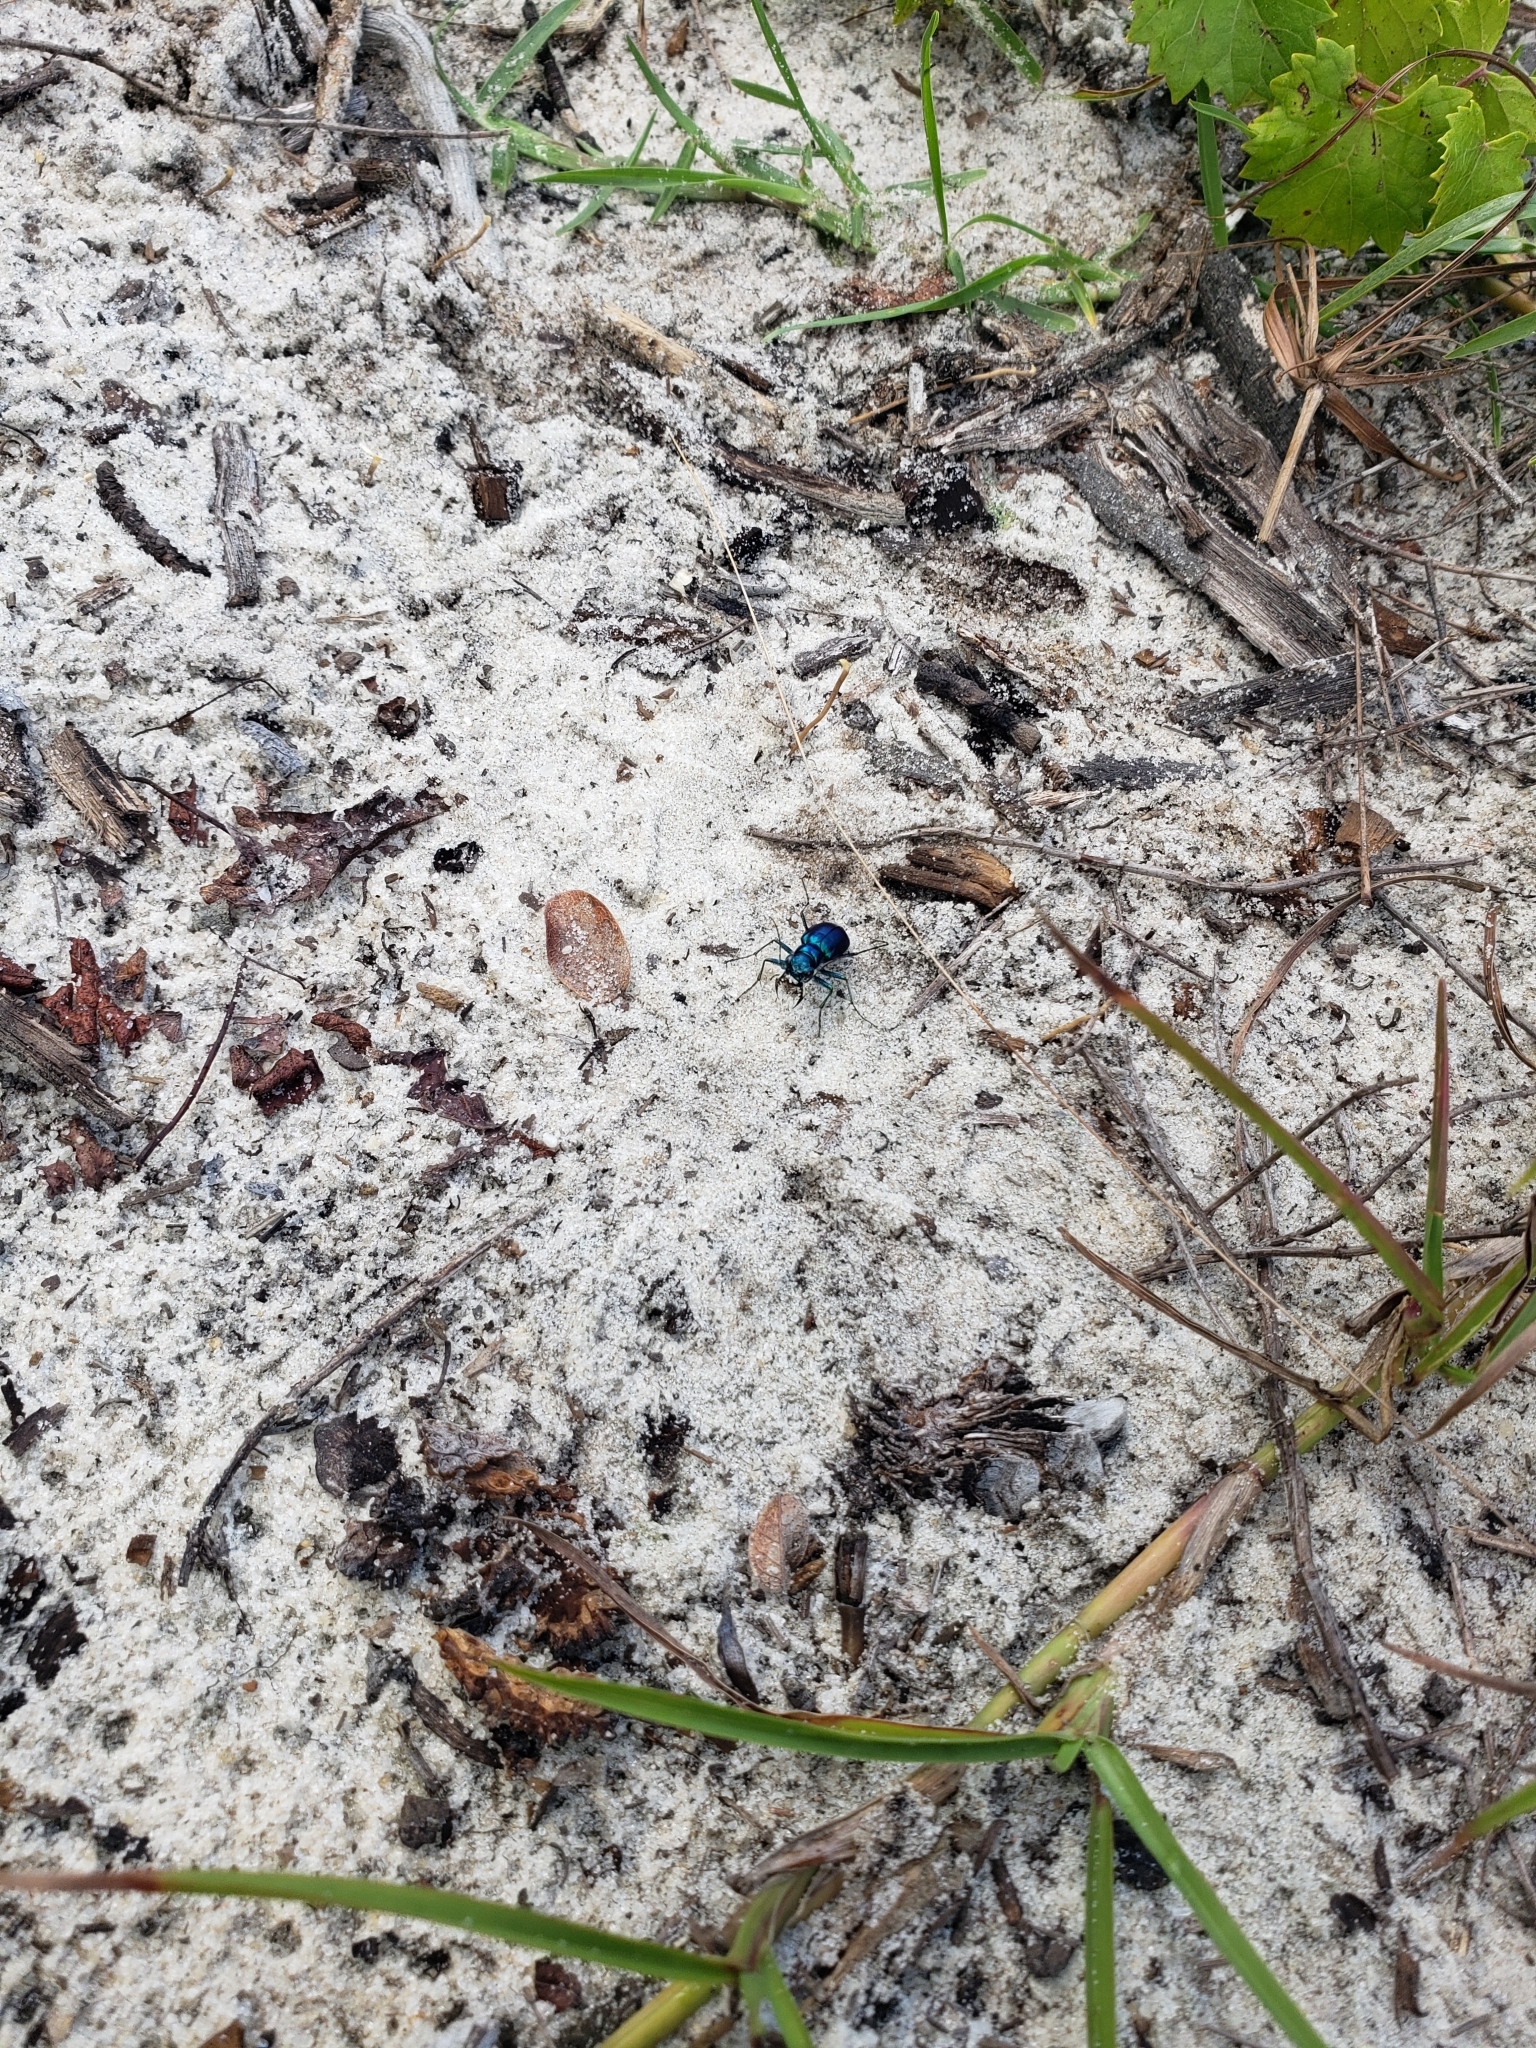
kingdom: Animalia
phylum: Arthropoda
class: Insecta
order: Coleoptera
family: Carabidae
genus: Cicindela
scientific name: Cicindela scutellaris
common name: Festive tiger beetle
